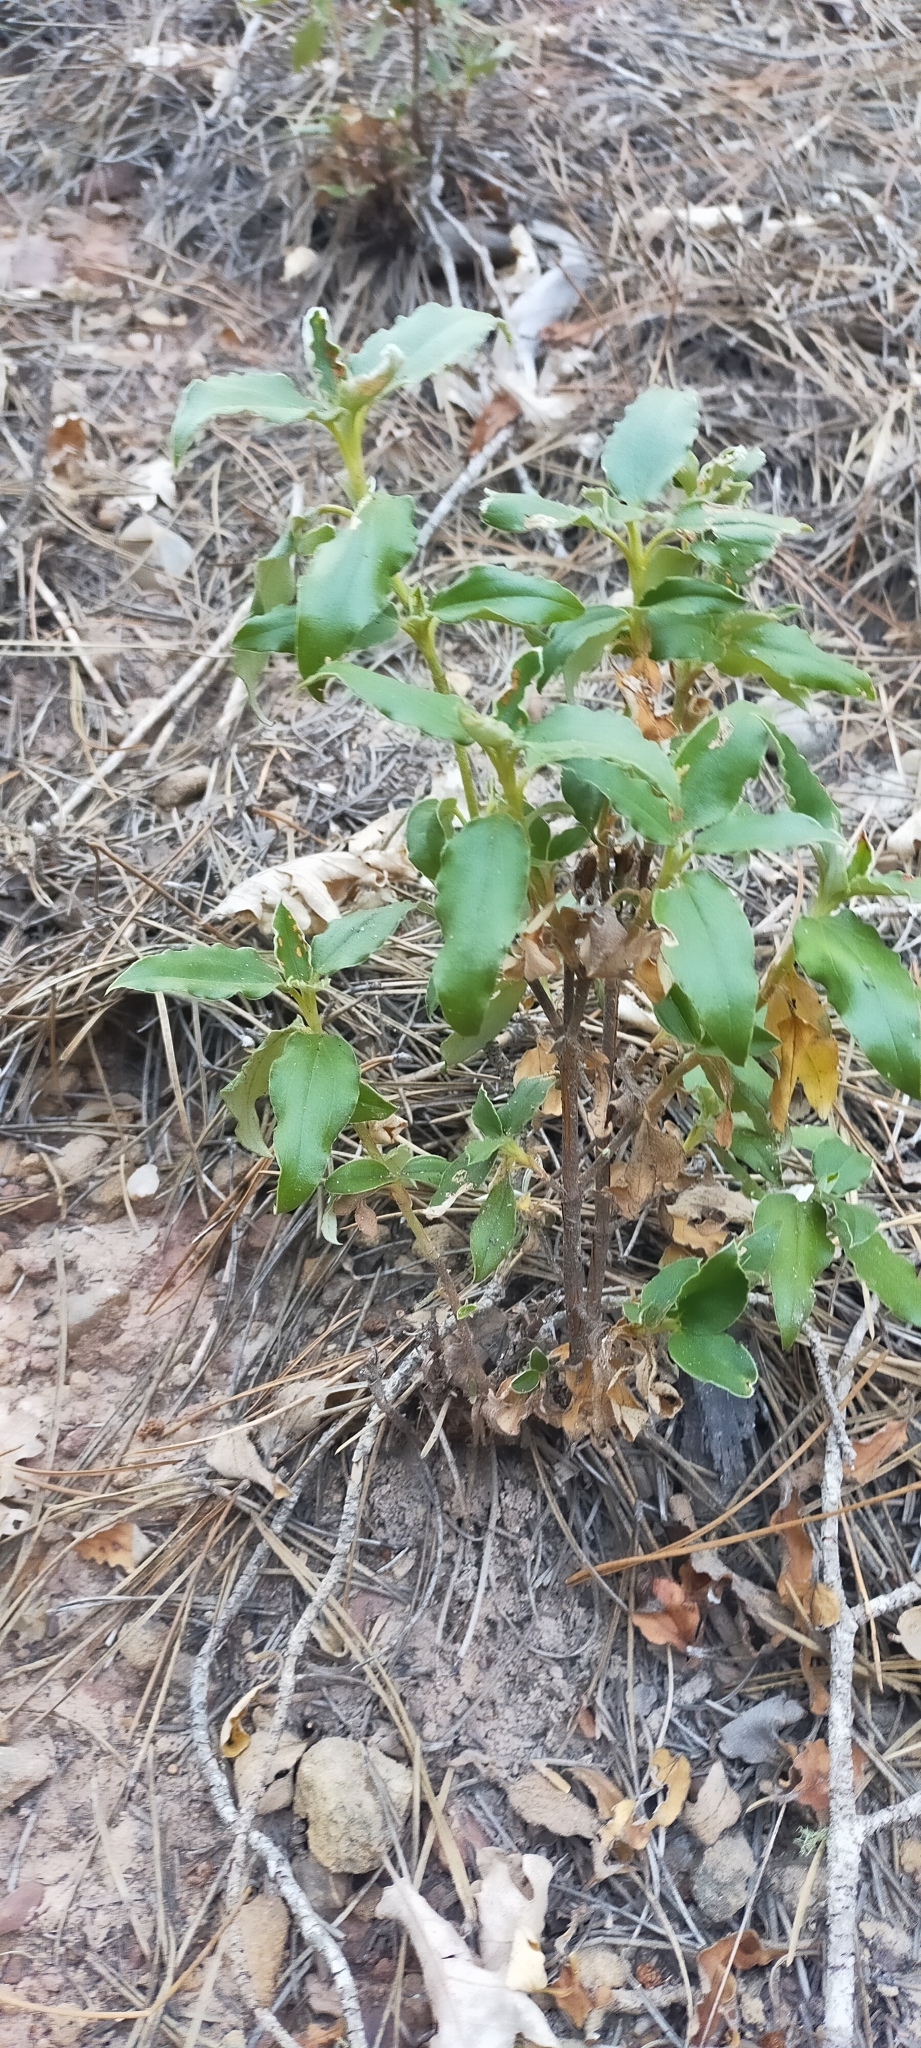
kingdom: Plantae
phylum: Tracheophyta
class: Magnoliopsida
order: Malvales
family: Cistaceae
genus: Cistus
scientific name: Cistus laurifolius
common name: Laurel-leaved cistus
